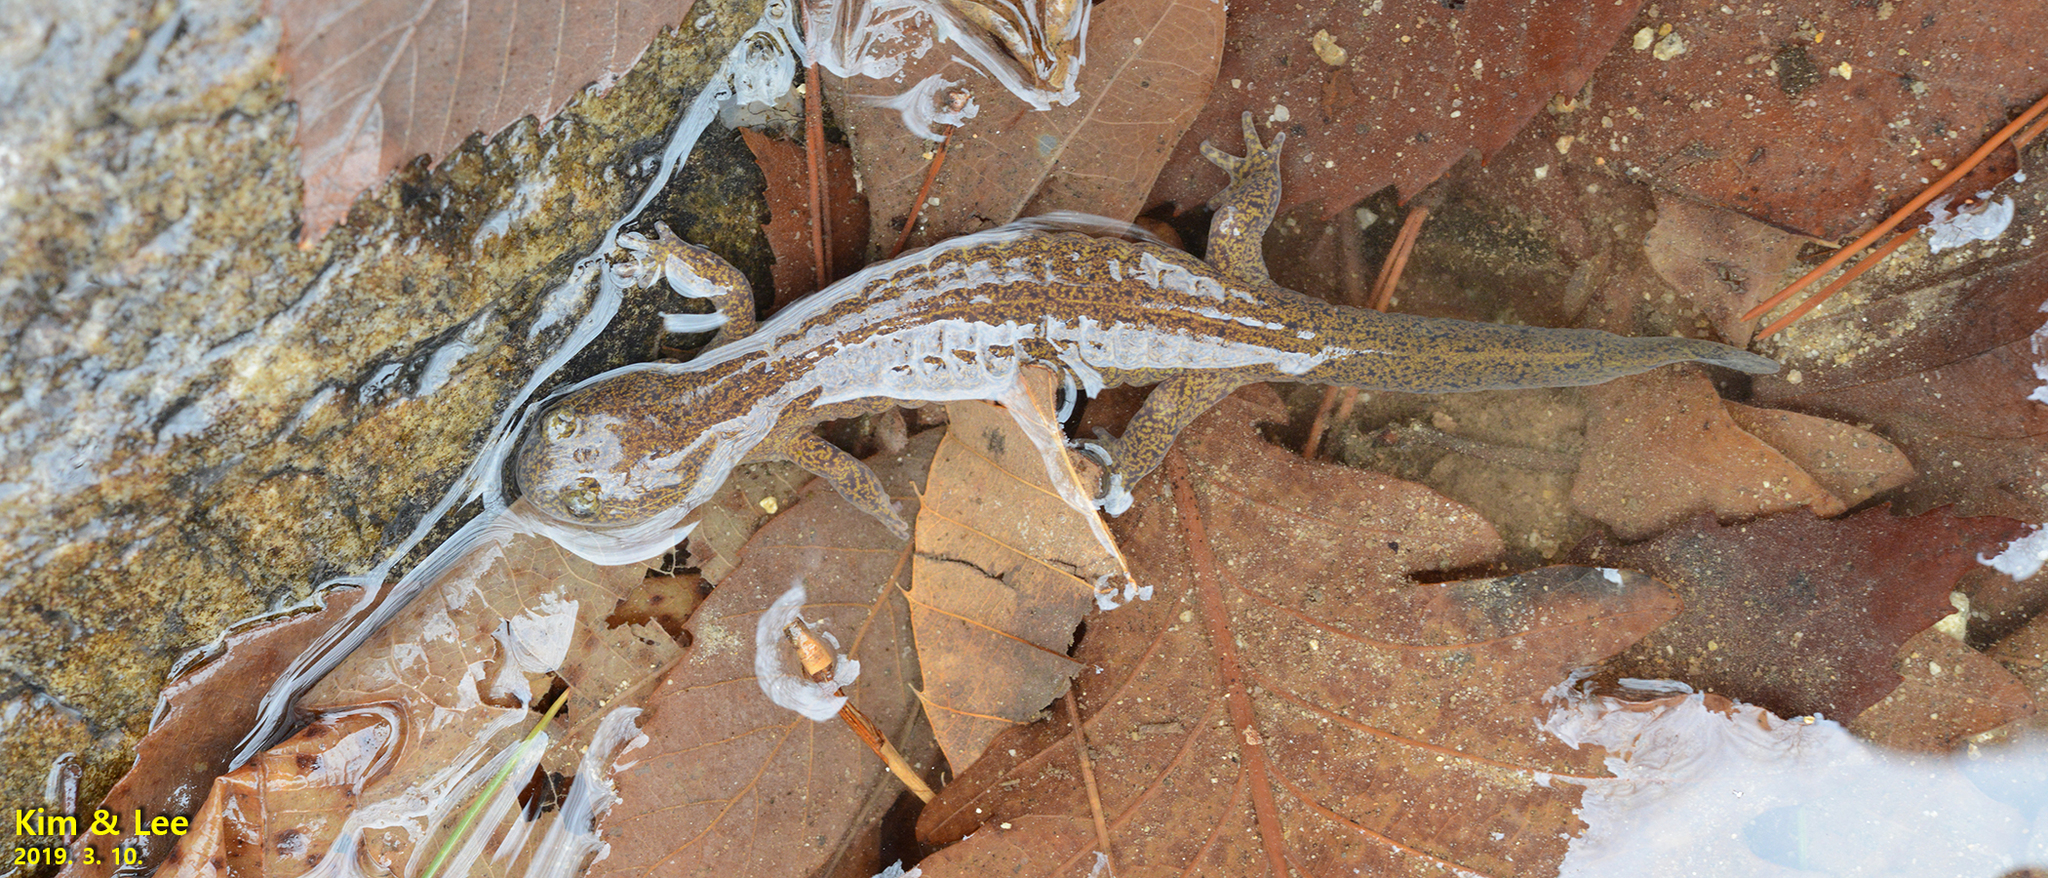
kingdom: Animalia
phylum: Chordata
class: Amphibia
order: Caudata
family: Hynobiidae
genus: Hynobius
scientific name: Hynobius perplicatus
